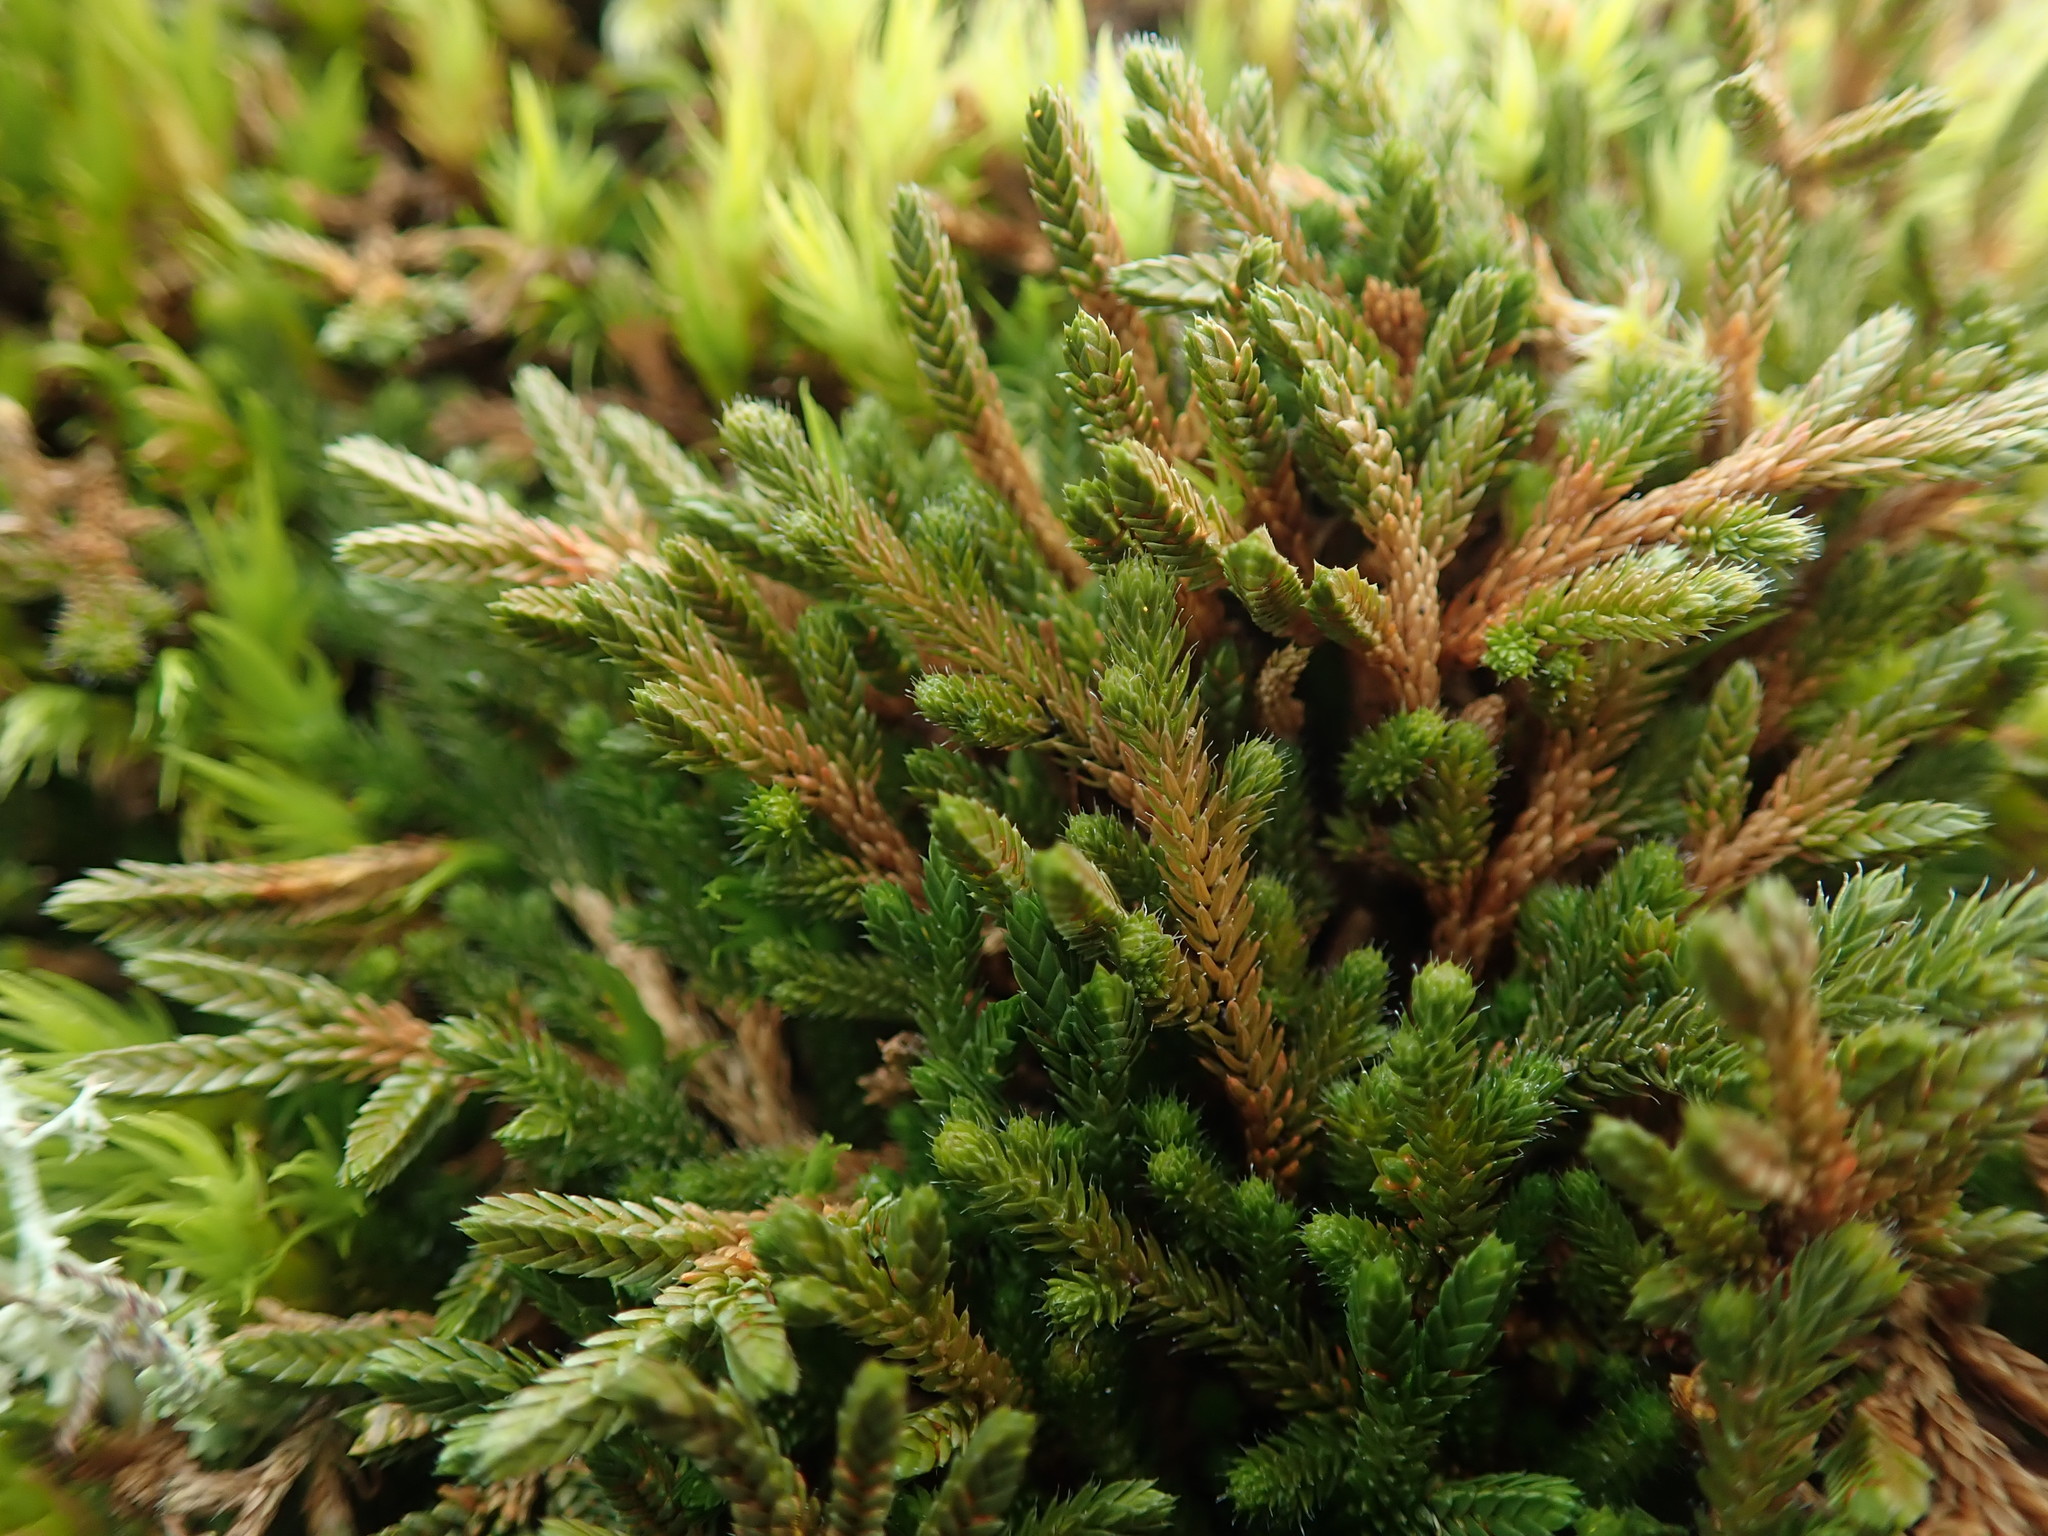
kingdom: Plantae
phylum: Tracheophyta
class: Lycopodiopsida
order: Selaginellales
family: Selaginellaceae
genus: Selaginella
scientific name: Selaginella wallacei
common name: Wallace's selaginella
